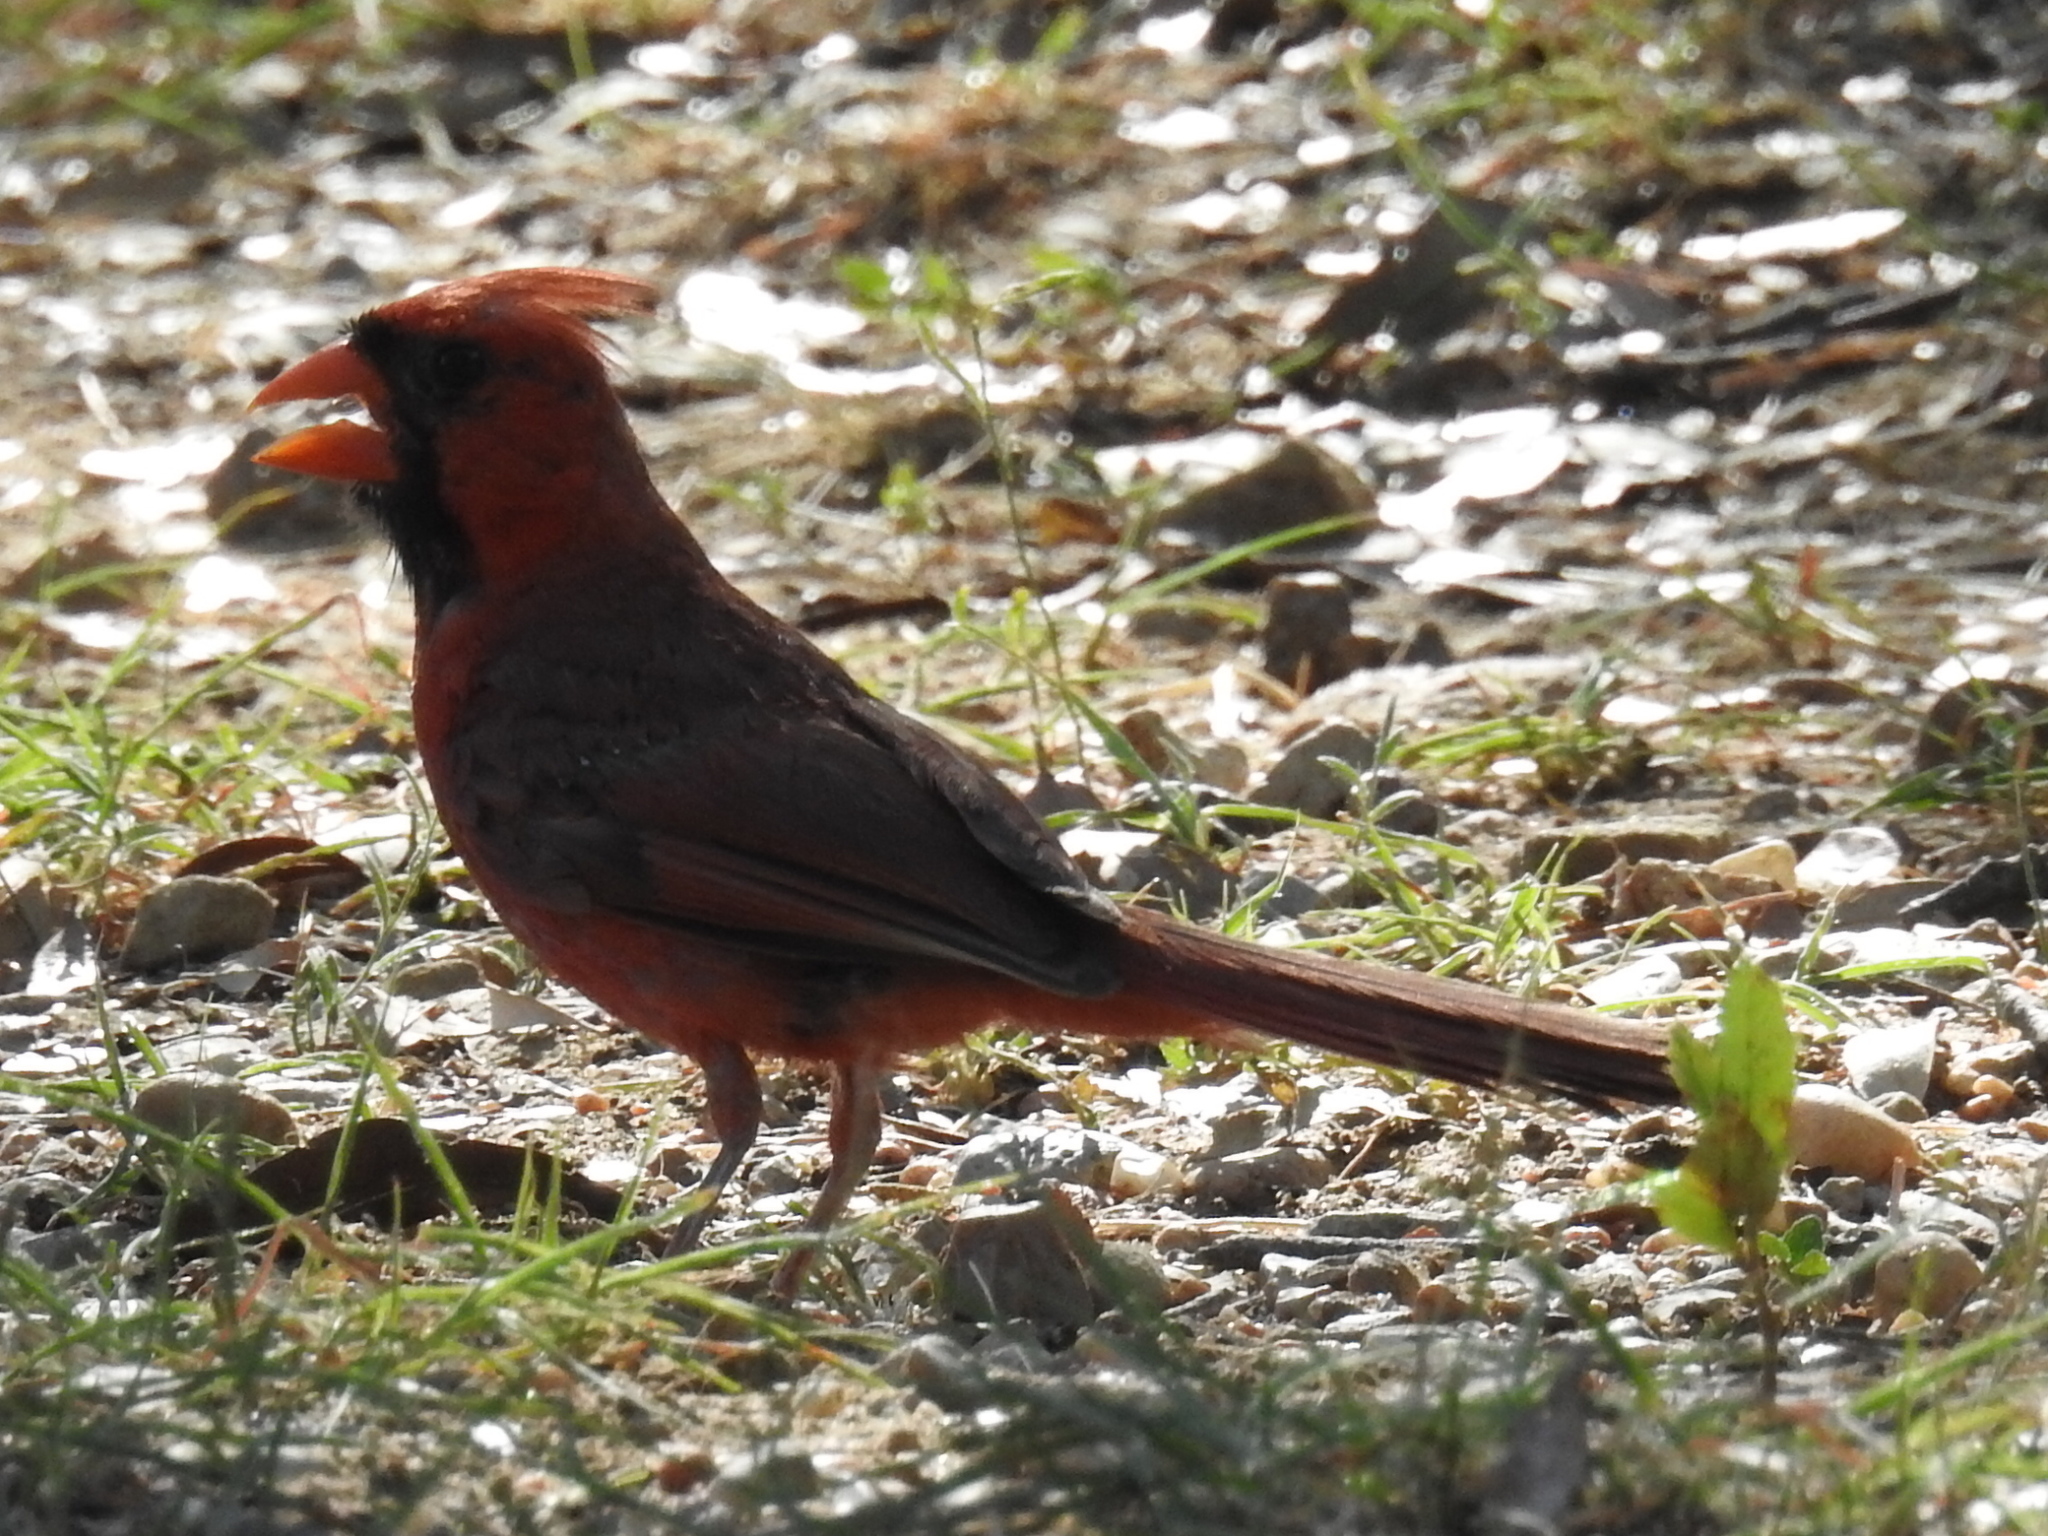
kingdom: Animalia
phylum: Chordata
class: Aves
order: Passeriformes
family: Cardinalidae
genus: Cardinalis
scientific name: Cardinalis cardinalis
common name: Northern cardinal
